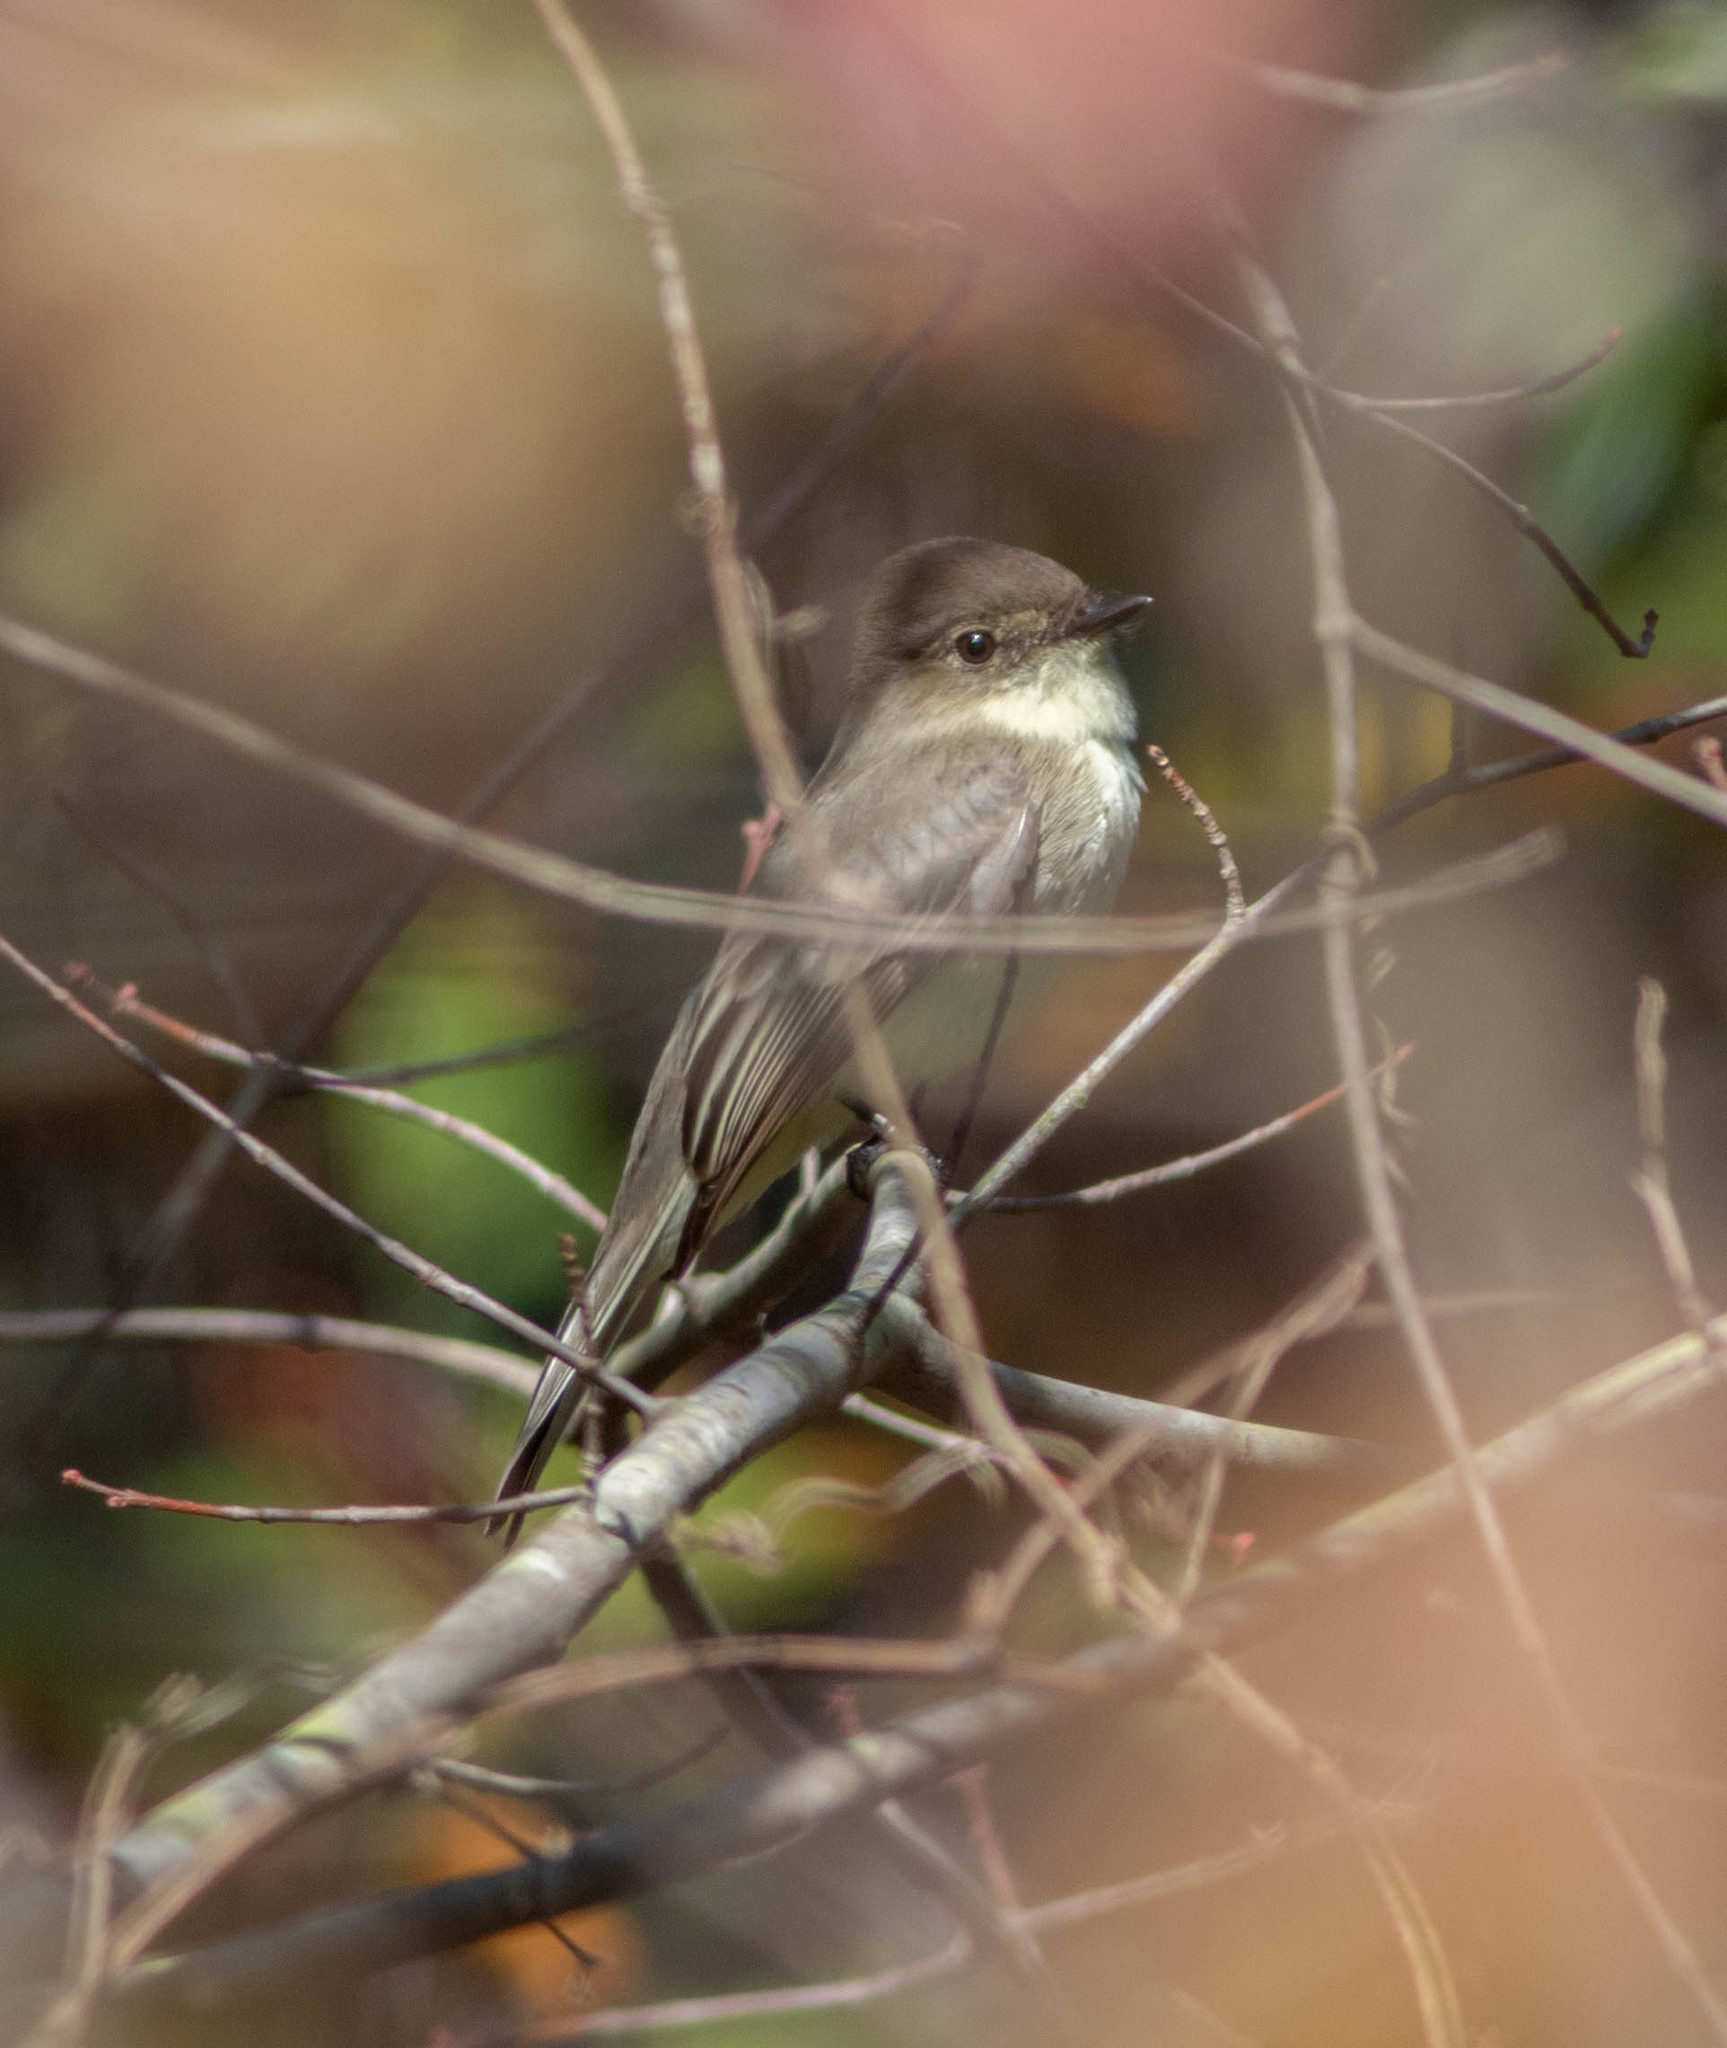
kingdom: Animalia
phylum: Chordata
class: Aves
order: Passeriformes
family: Tyrannidae
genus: Sayornis
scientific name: Sayornis phoebe
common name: Eastern phoebe
